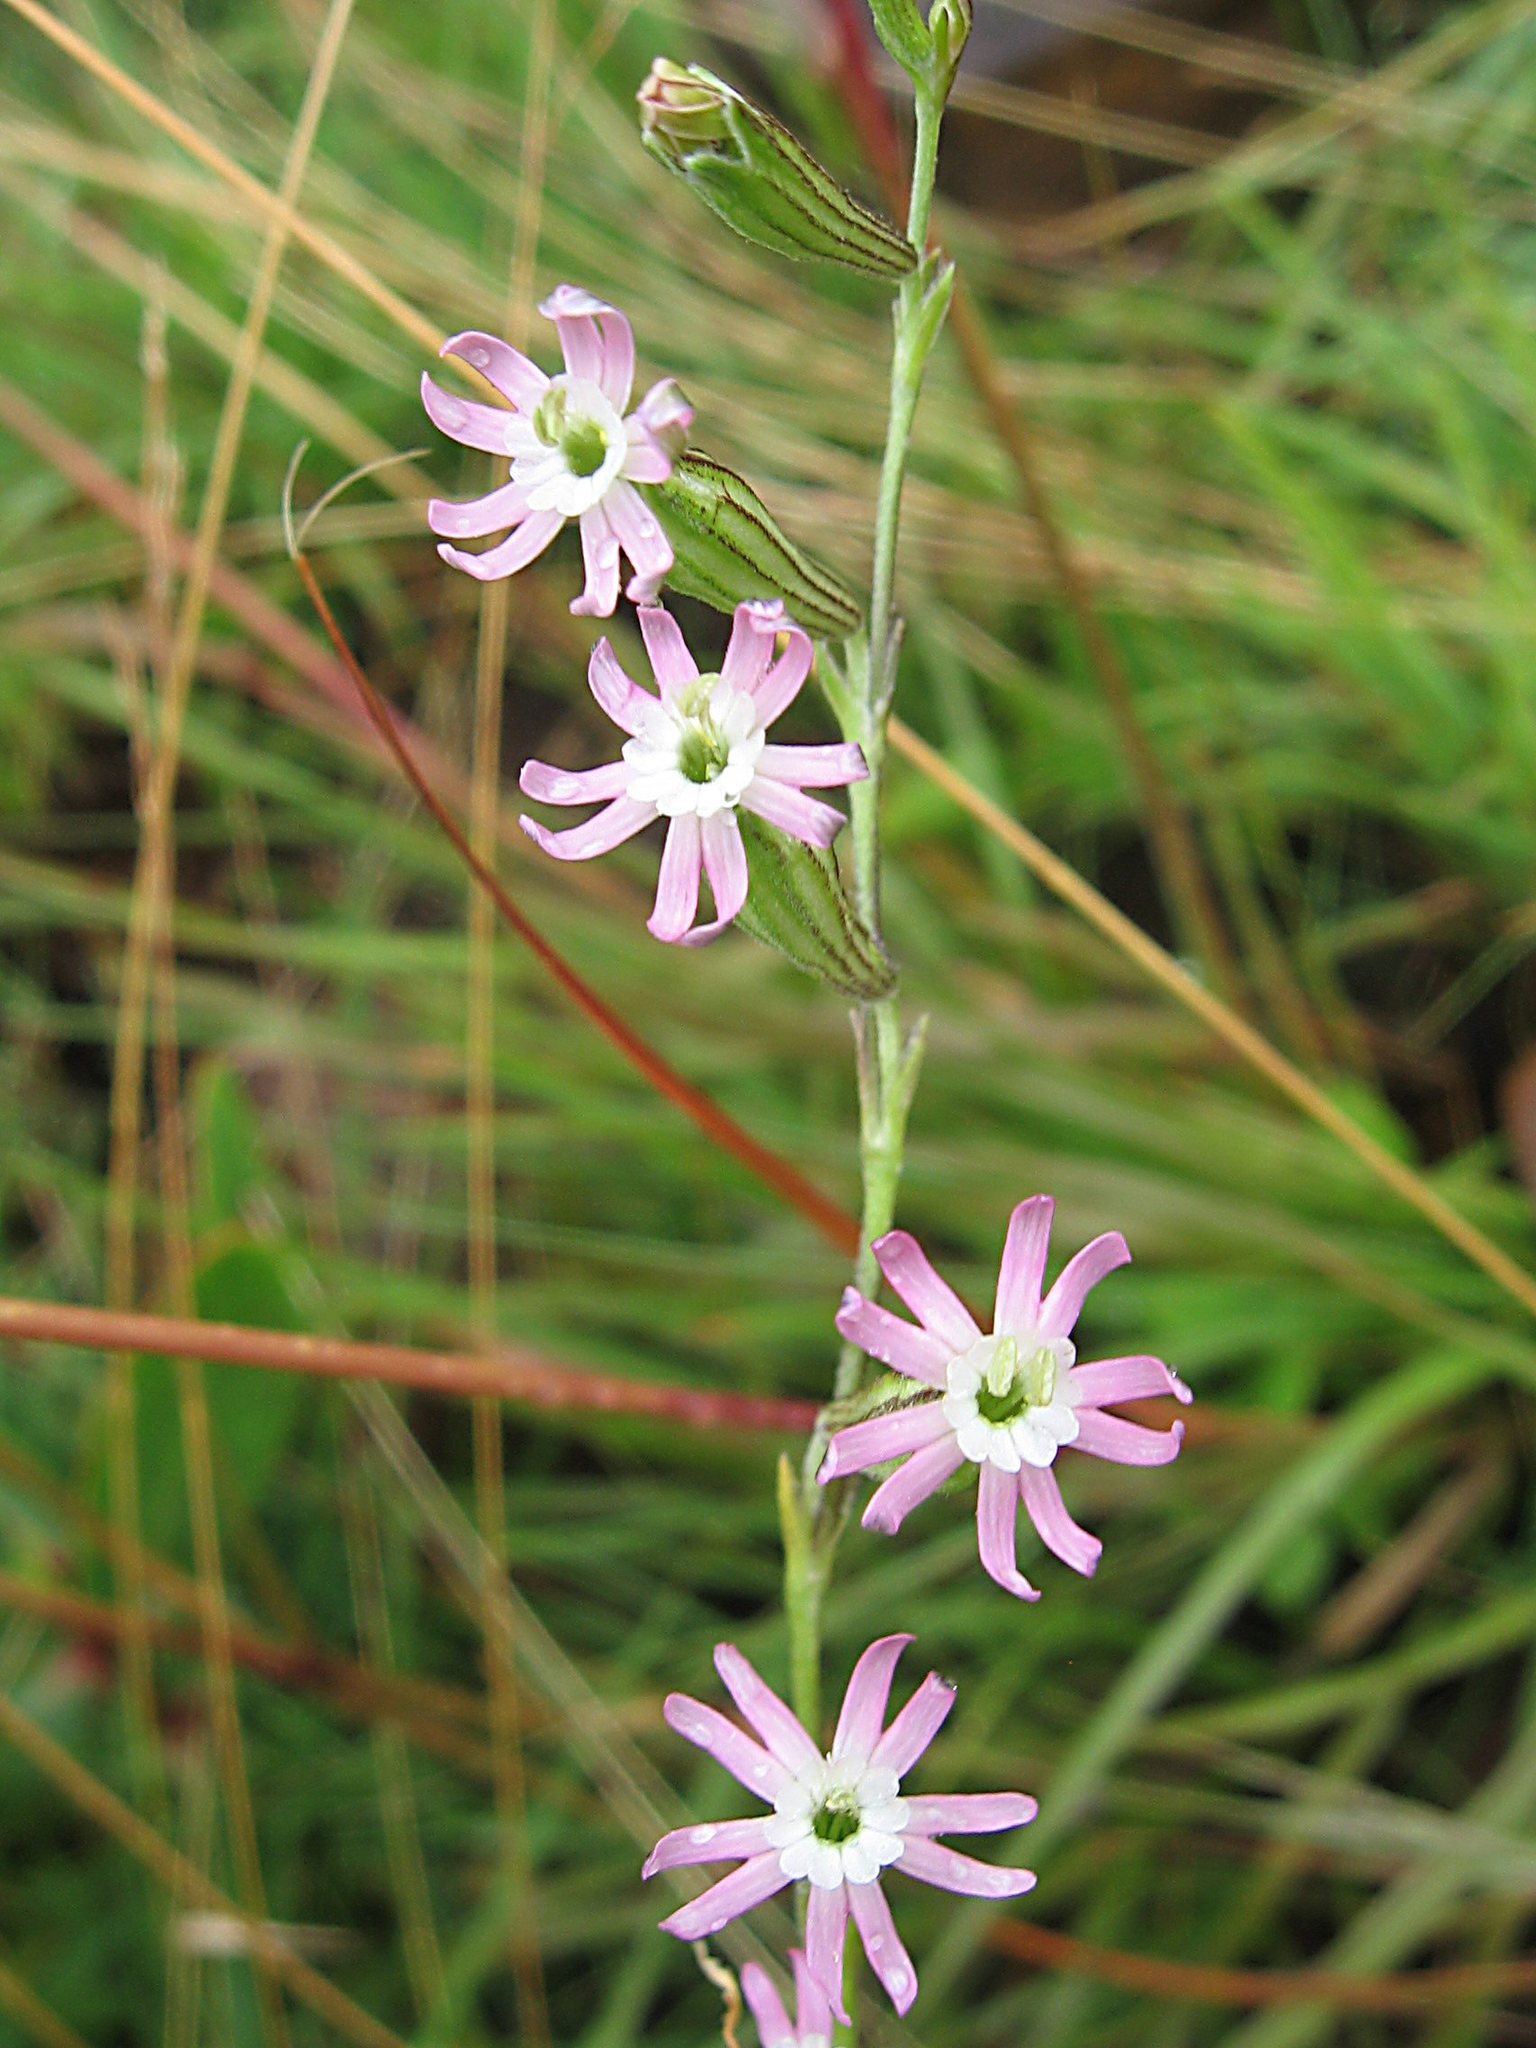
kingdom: Plantae
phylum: Tracheophyta
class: Magnoliopsida
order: Caryophyllales
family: Caryophyllaceae
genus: Silene
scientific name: Silene burchellii
